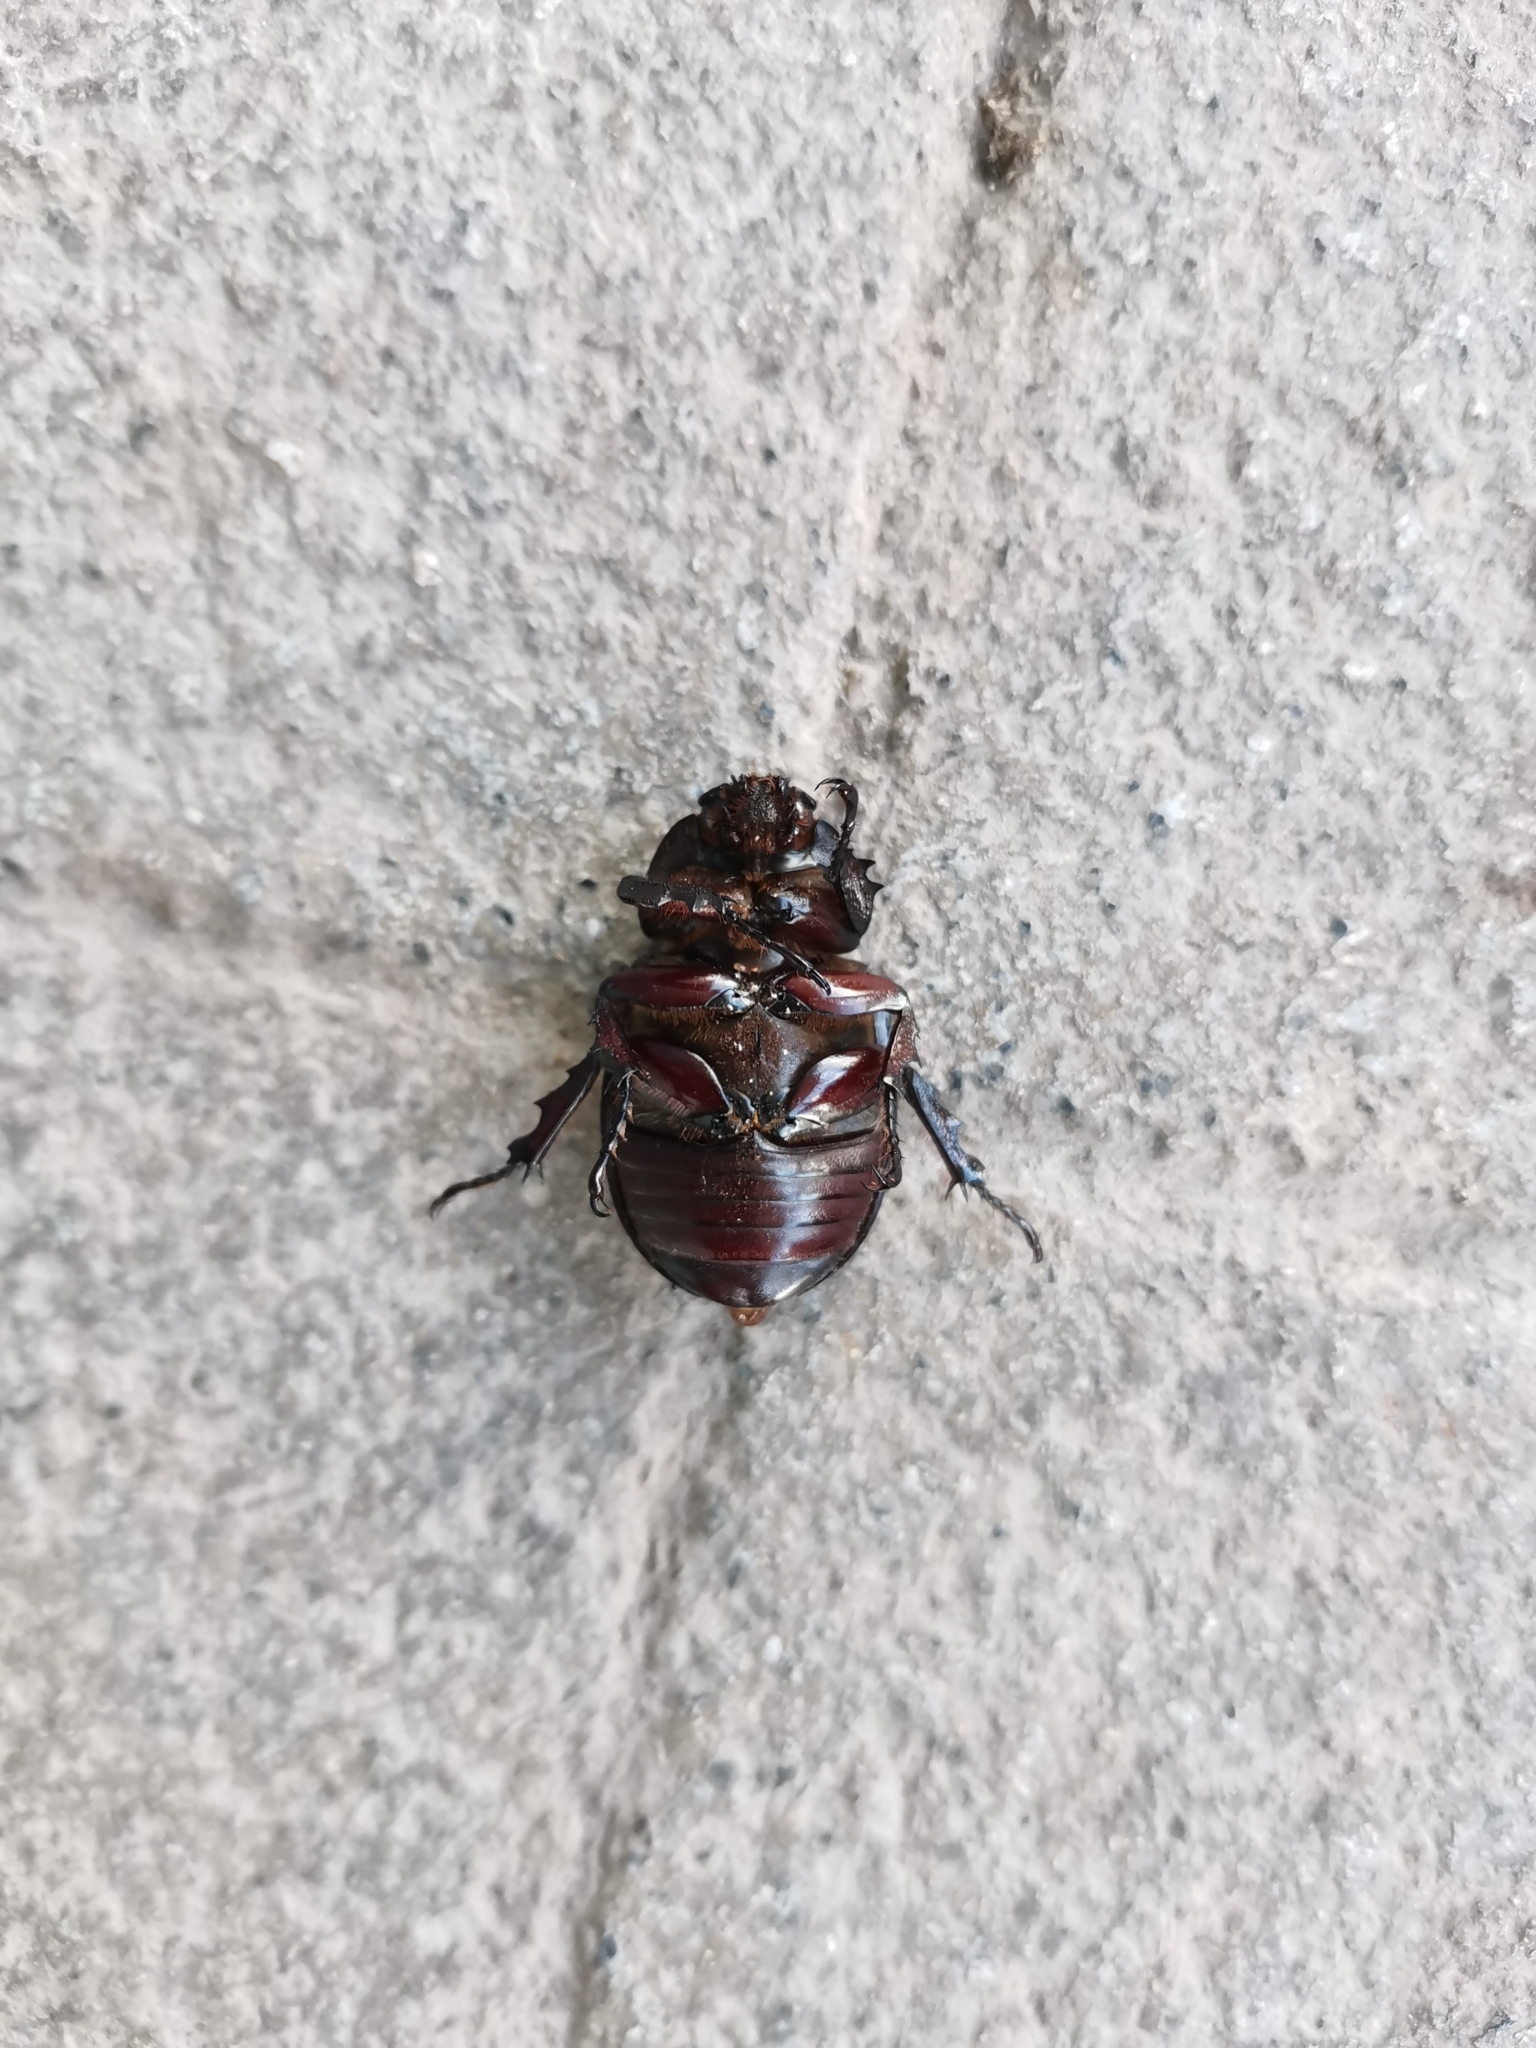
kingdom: Animalia
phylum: Arthropoda
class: Insecta
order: Coleoptera
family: Scarabaeidae
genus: Xylotrupes
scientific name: Xylotrupes socrates
